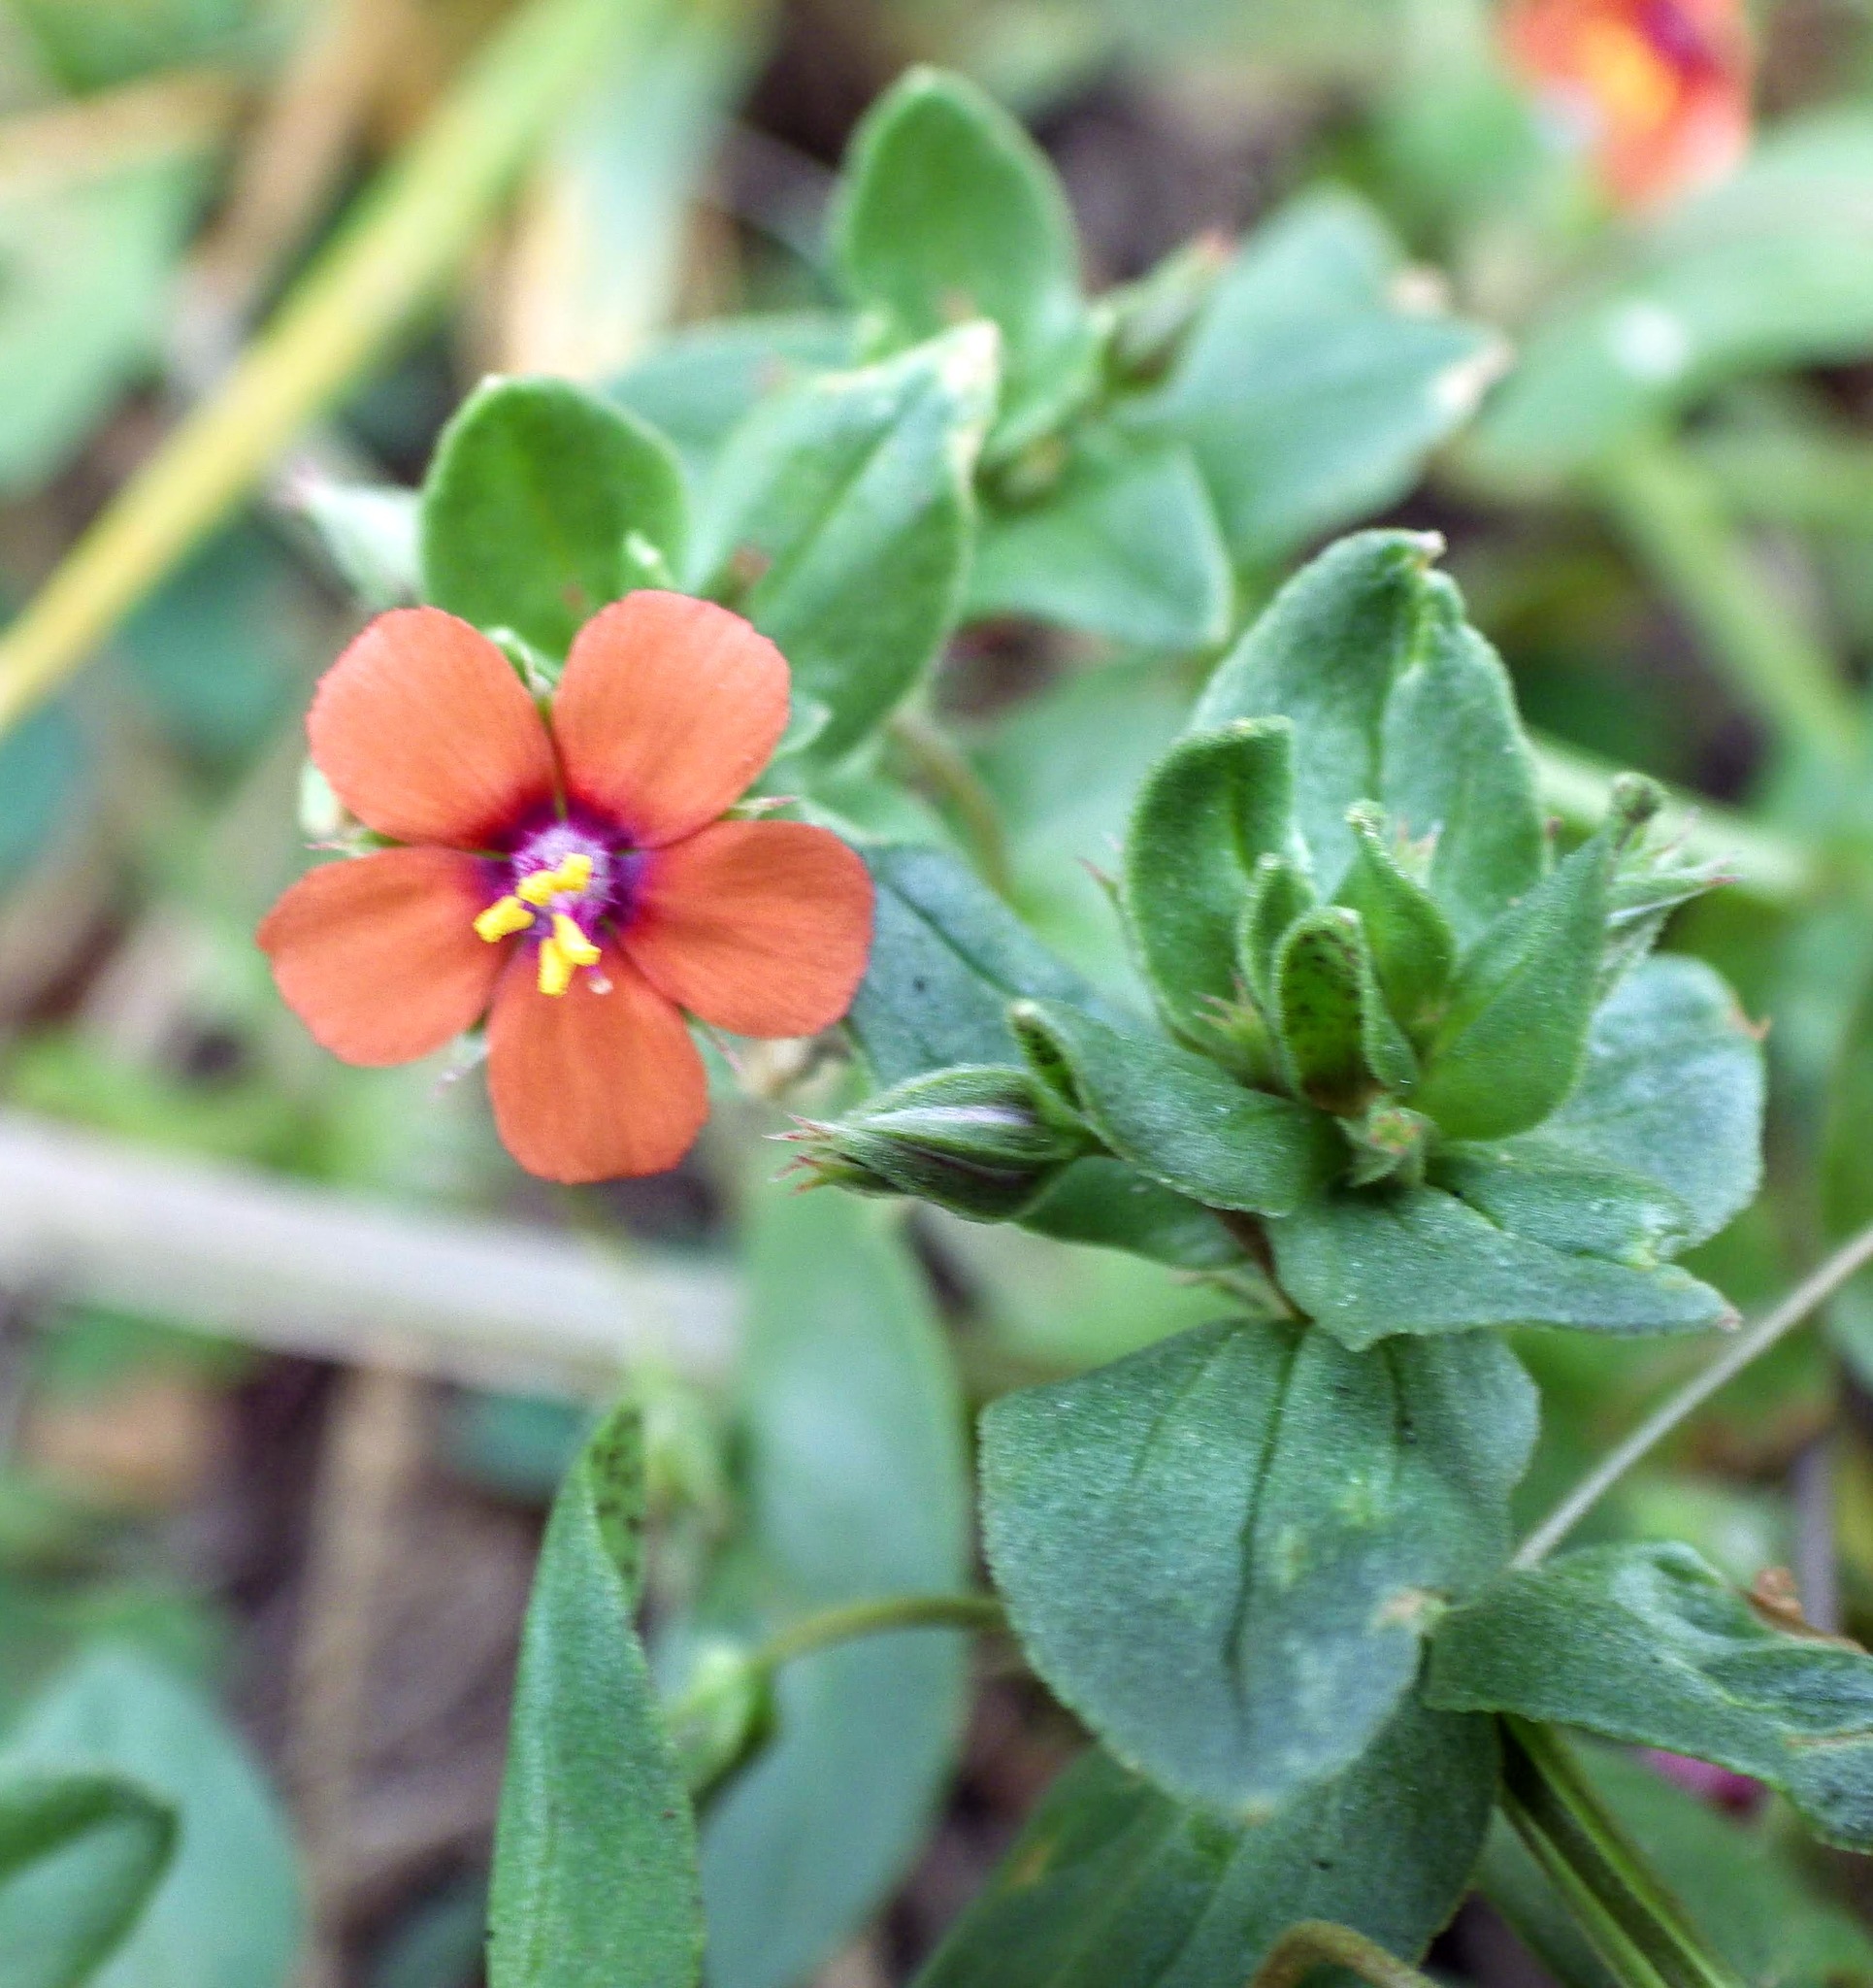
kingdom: Plantae
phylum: Tracheophyta
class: Magnoliopsida
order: Ericales
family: Primulaceae
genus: Lysimachia
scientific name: Lysimachia arvensis
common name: Scarlet pimpernel
